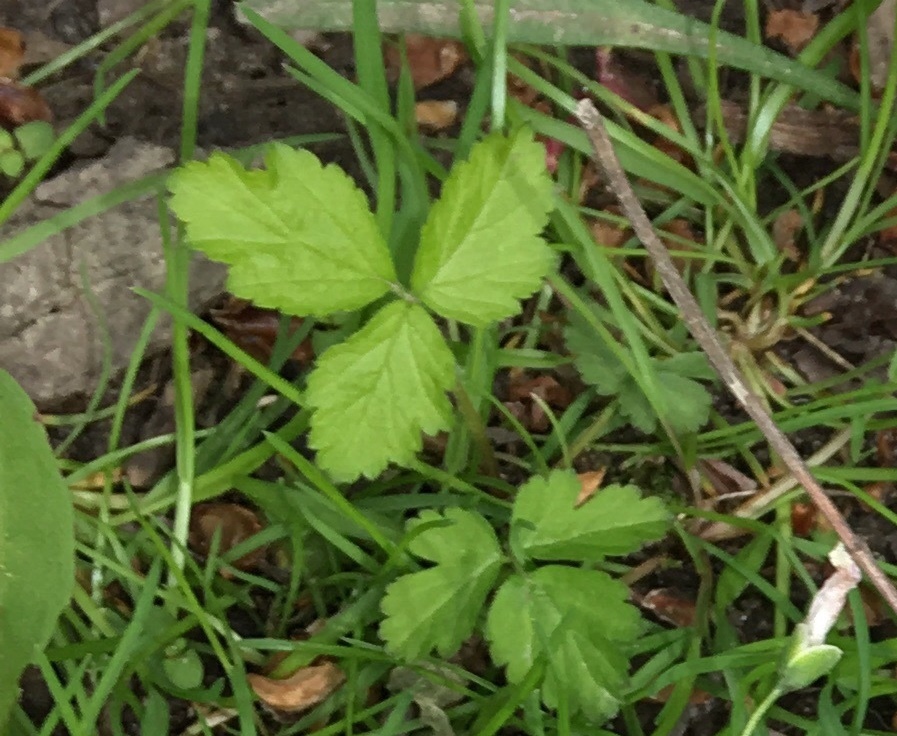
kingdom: Plantae
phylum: Tracheophyta
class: Magnoliopsida
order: Rosales
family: Rosaceae
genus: Potentilla
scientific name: Potentilla indica
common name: Yellow-flowered strawberry
